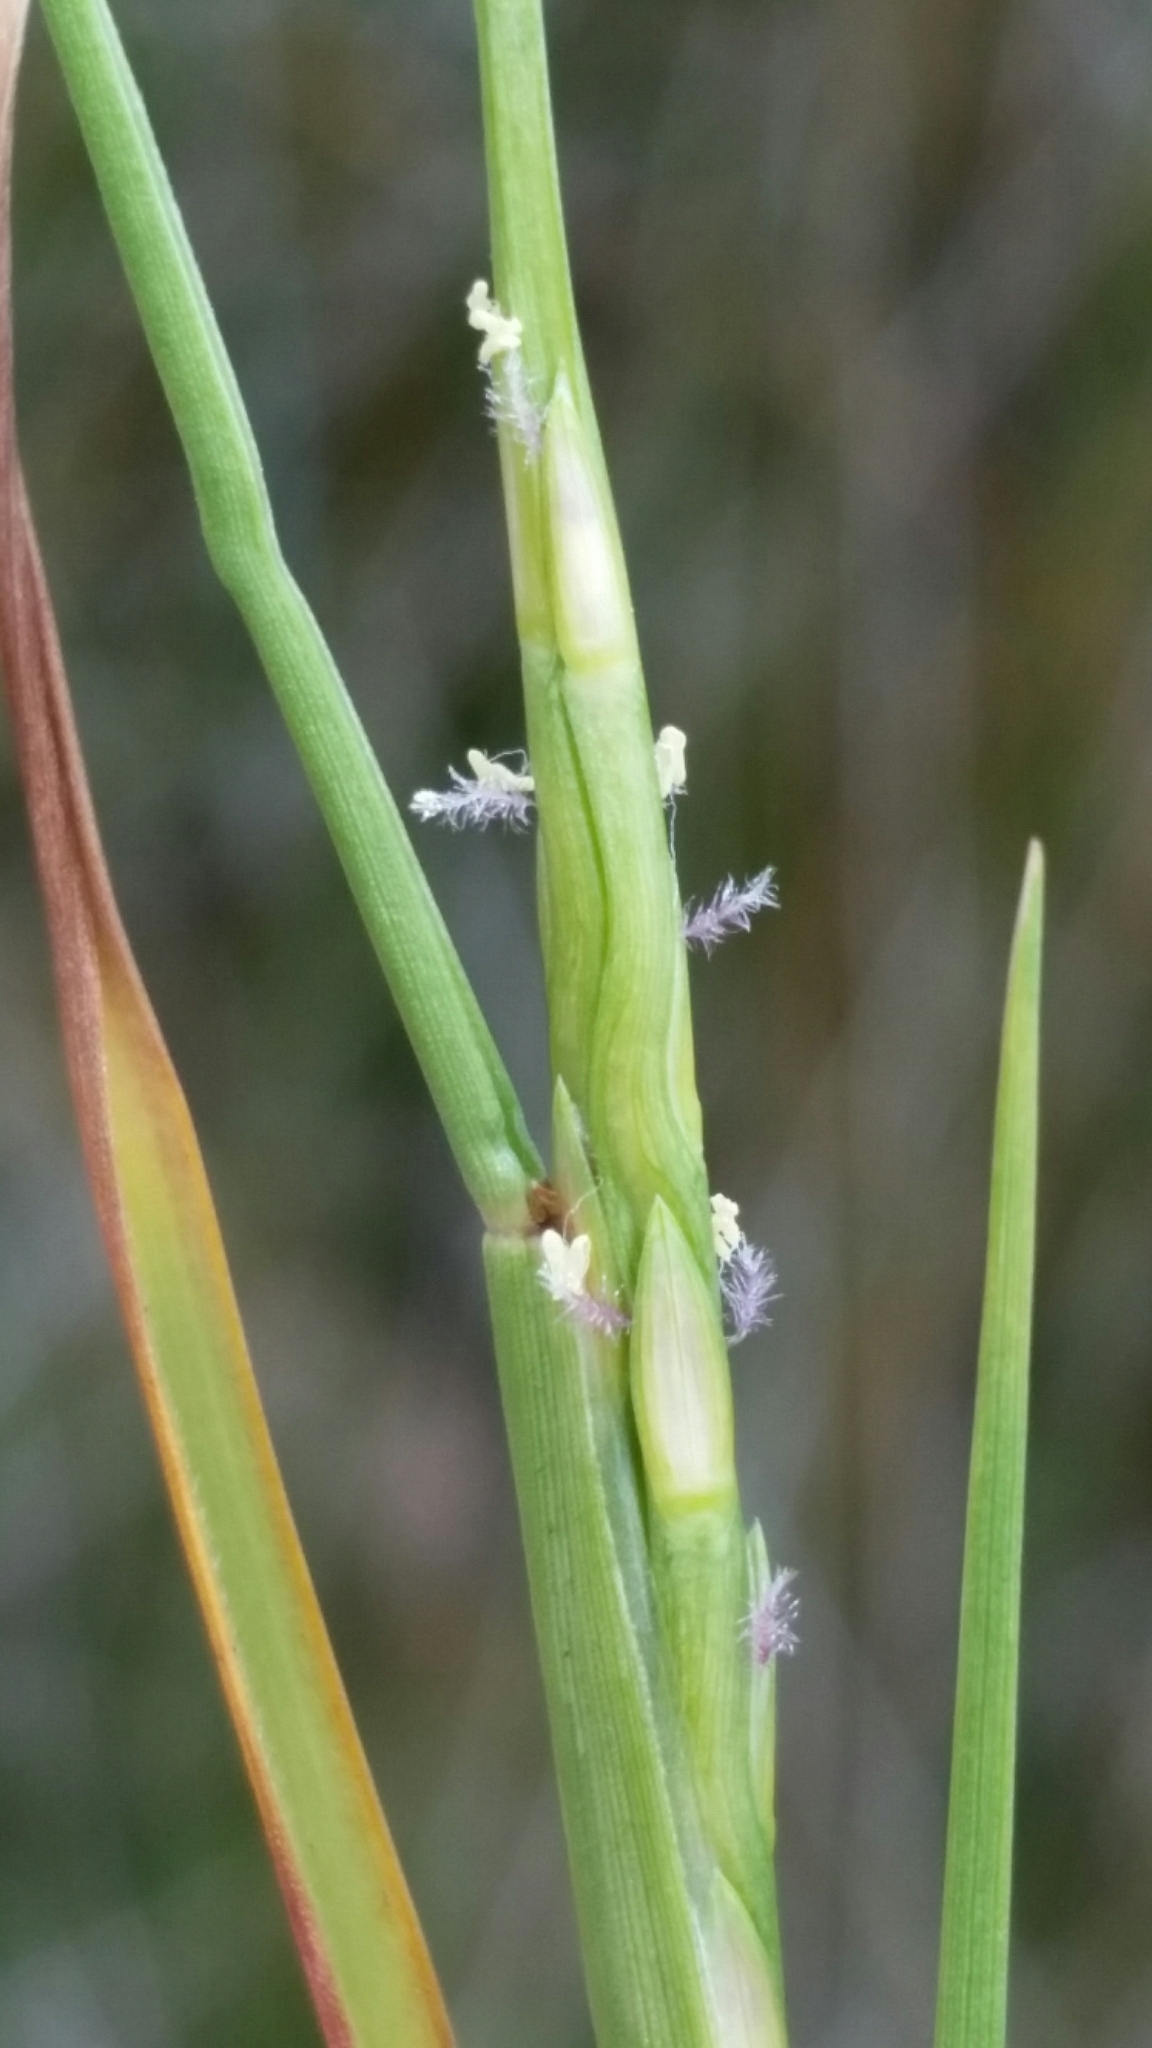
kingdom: Plantae
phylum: Tracheophyta
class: Liliopsida
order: Poales
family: Poaceae
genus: Paspalum
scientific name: Paspalum eglume
